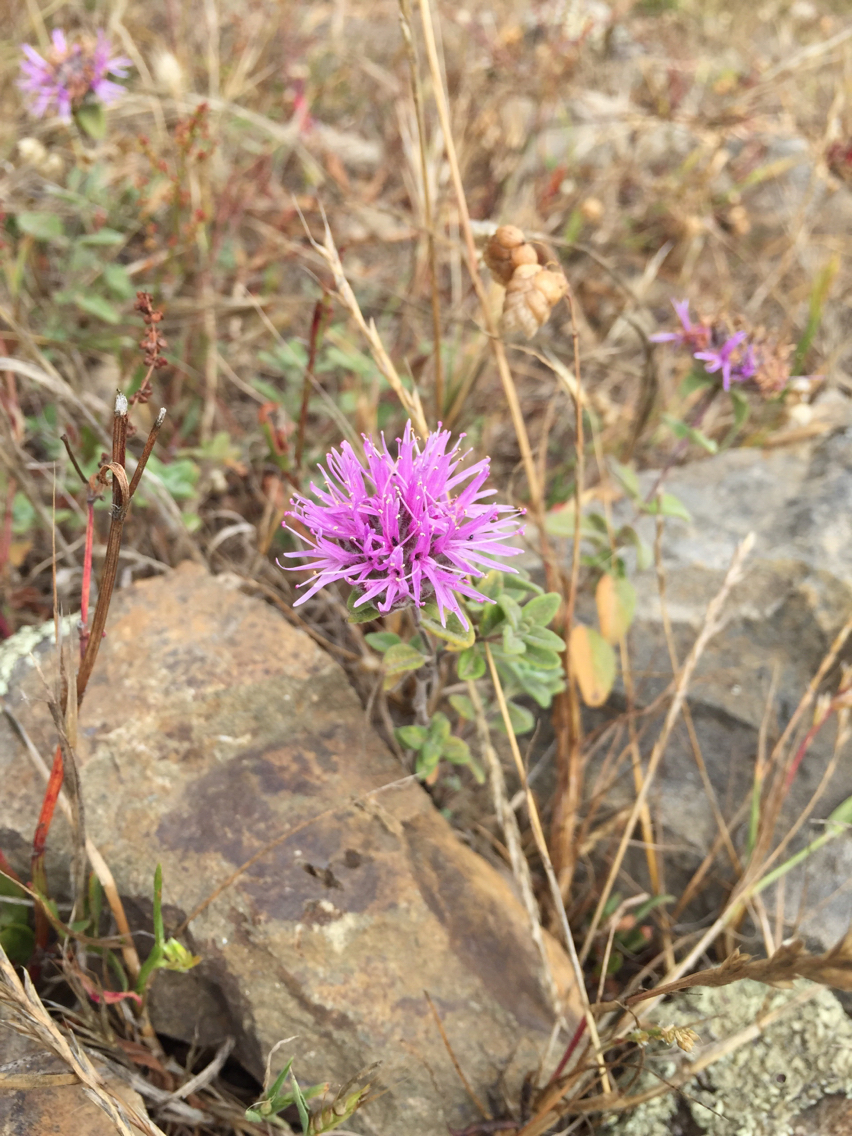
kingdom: Plantae
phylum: Tracheophyta
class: Magnoliopsida
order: Lamiales
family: Lamiaceae
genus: Monardella
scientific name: Monardella odoratissima
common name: Pacific monardella
